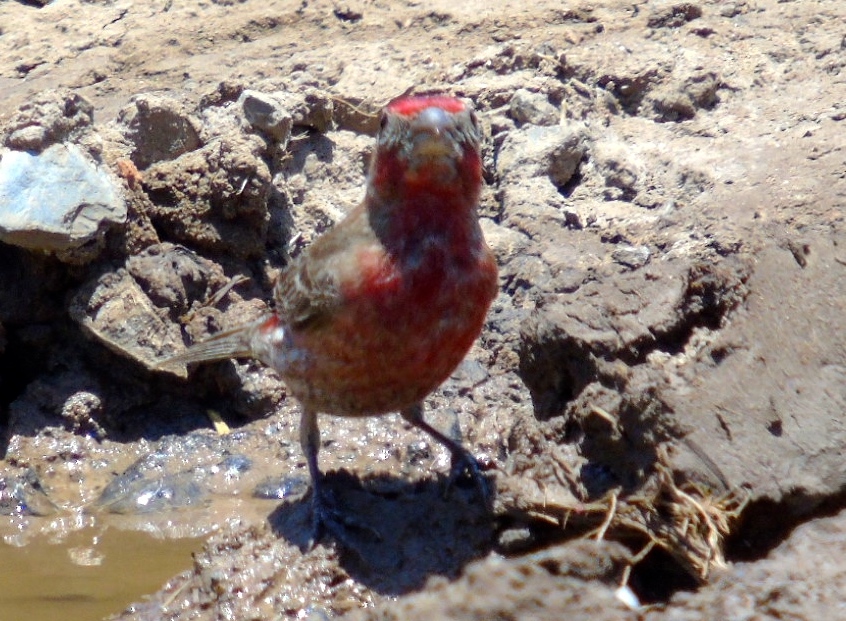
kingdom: Animalia
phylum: Chordata
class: Aves
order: Passeriformes
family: Fringillidae
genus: Haemorhous
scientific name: Haemorhous mexicanus
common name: House finch
